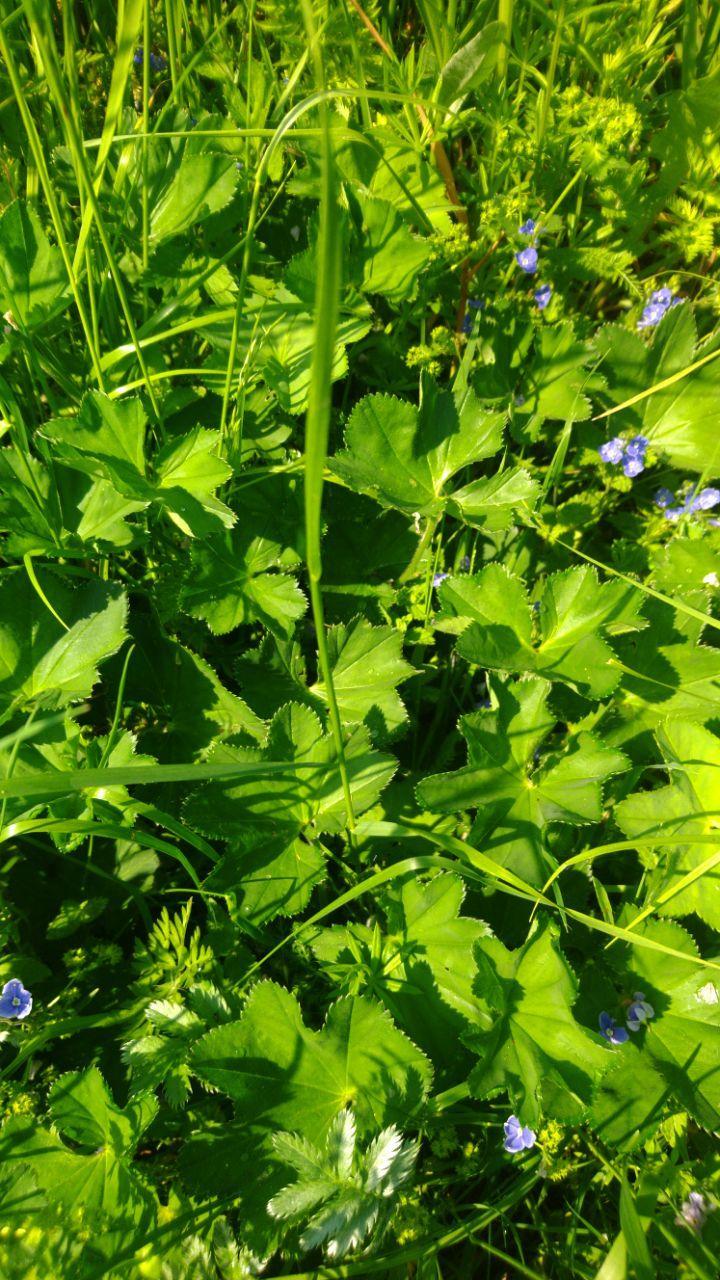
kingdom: Plantae
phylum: Tracheophyta
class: Magnoliopsida
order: Rosales
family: Rosaceae
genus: Alchemilla
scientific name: Alchemilla cymatophylla
